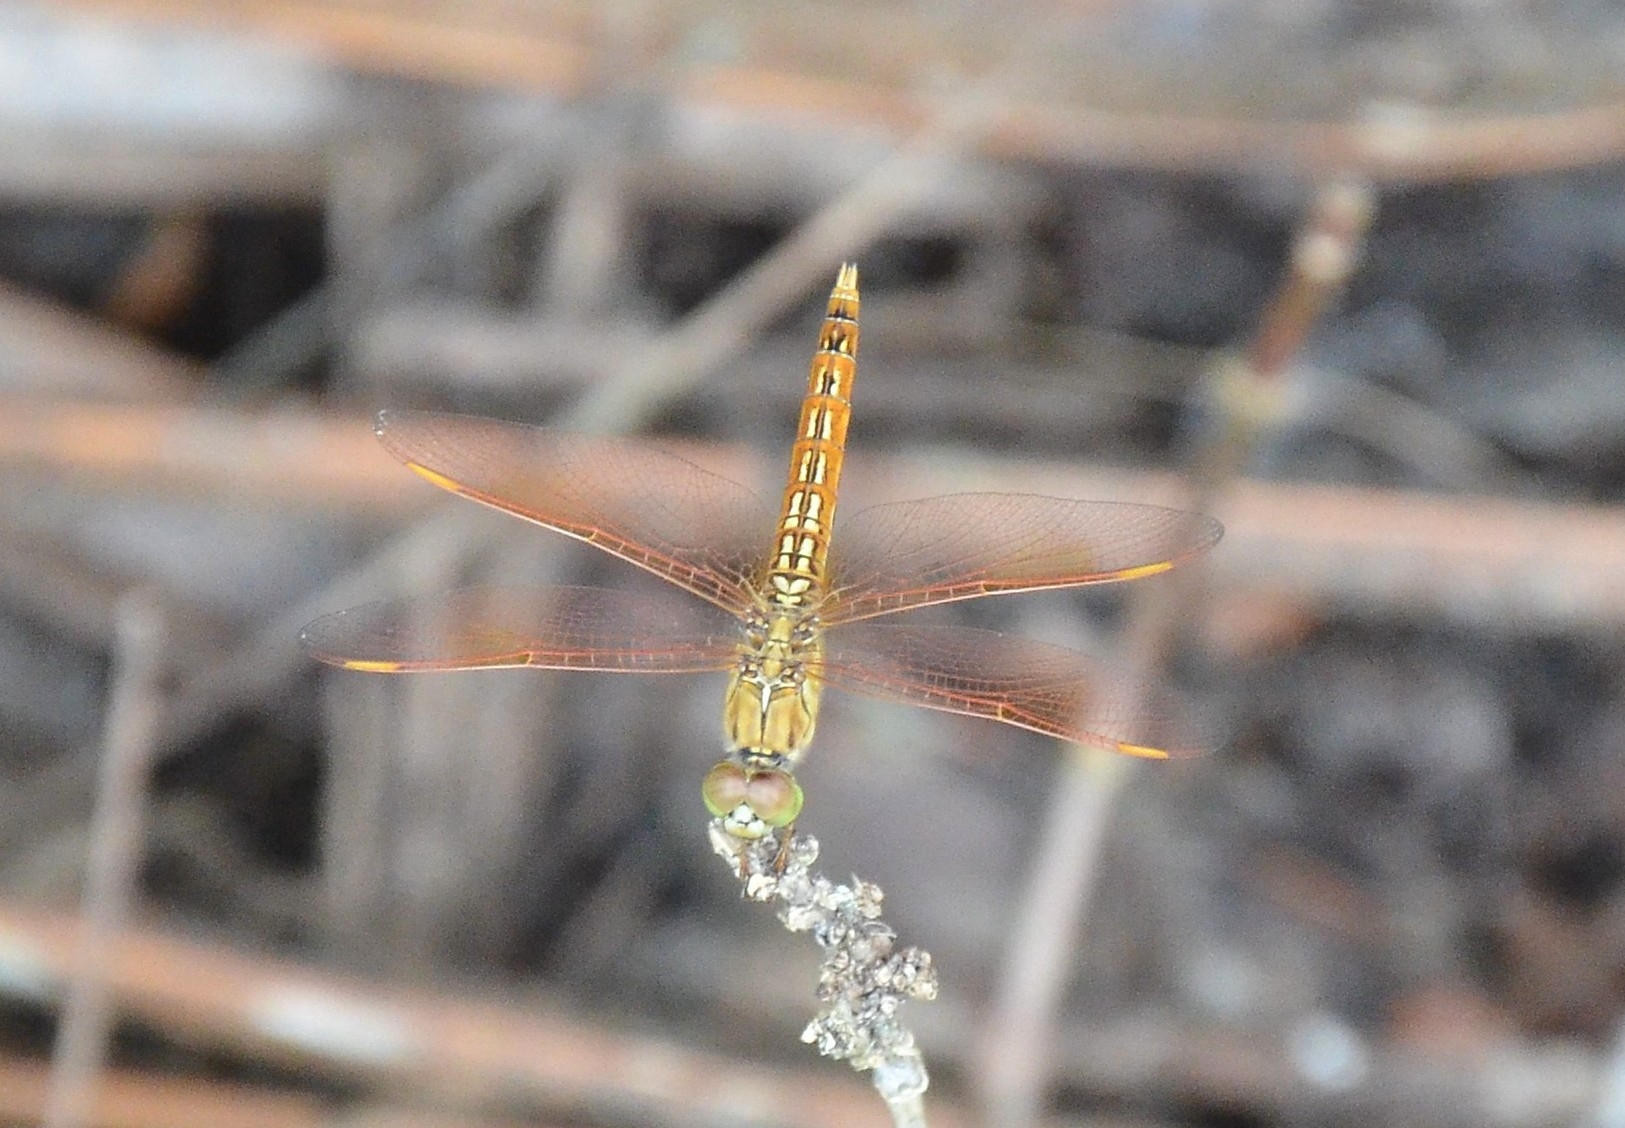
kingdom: Animalia
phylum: Arthropoda
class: Insecta
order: Odonata
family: Libellulidae
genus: Brachythemis
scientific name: Brachythemis contaminata
